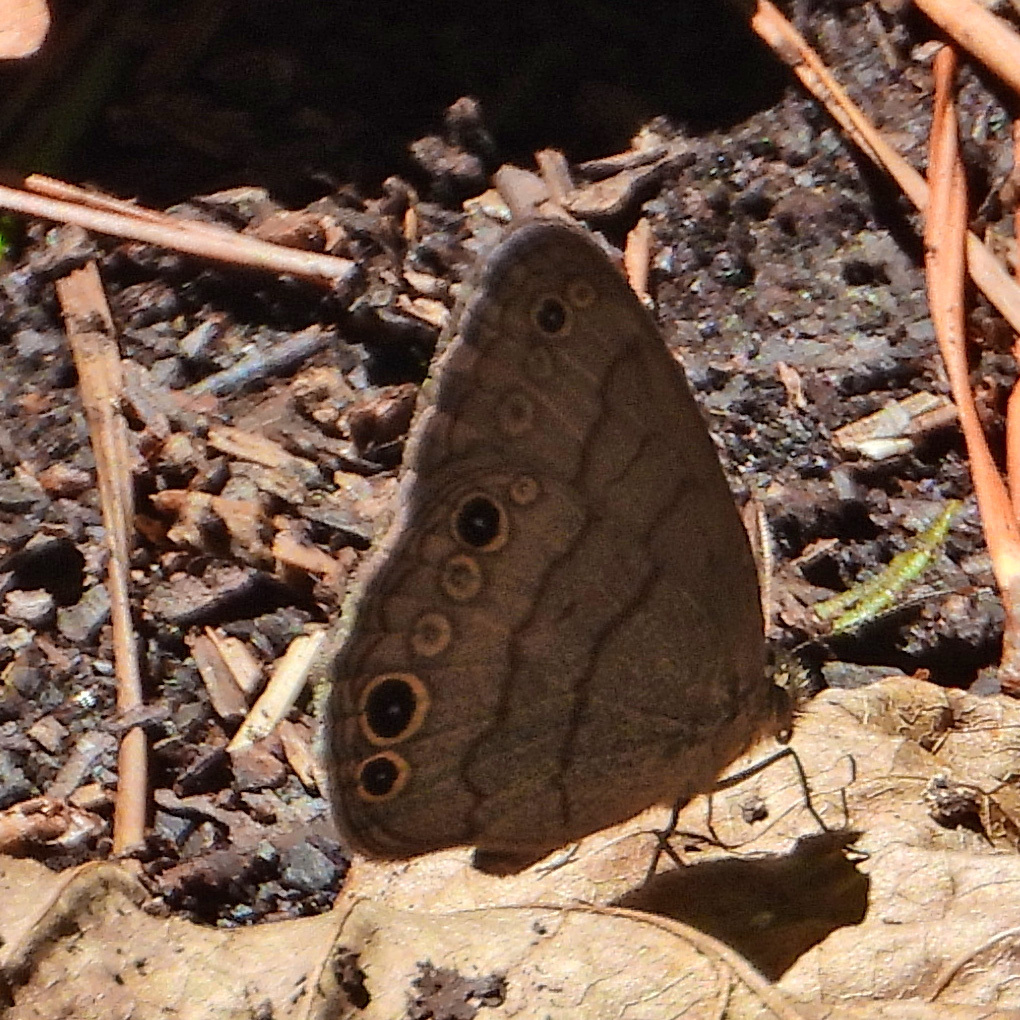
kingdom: Animalia
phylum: Arthropoda
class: Insecta
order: Lepidoptera
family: Nymphalidae
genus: Hermeuptychia
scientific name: Hermeuptychia intricata
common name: Intricate satyr
